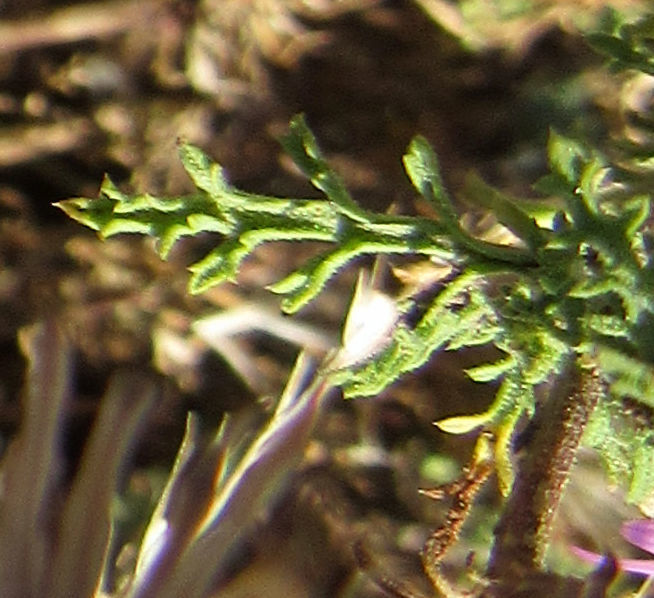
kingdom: Plantae
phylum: Tracheophyta
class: Magnoliopsida
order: Asterales
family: Asteraceae
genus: Machaeranthera
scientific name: Machaeranthera tanacetifolia
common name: Tansy-aster
